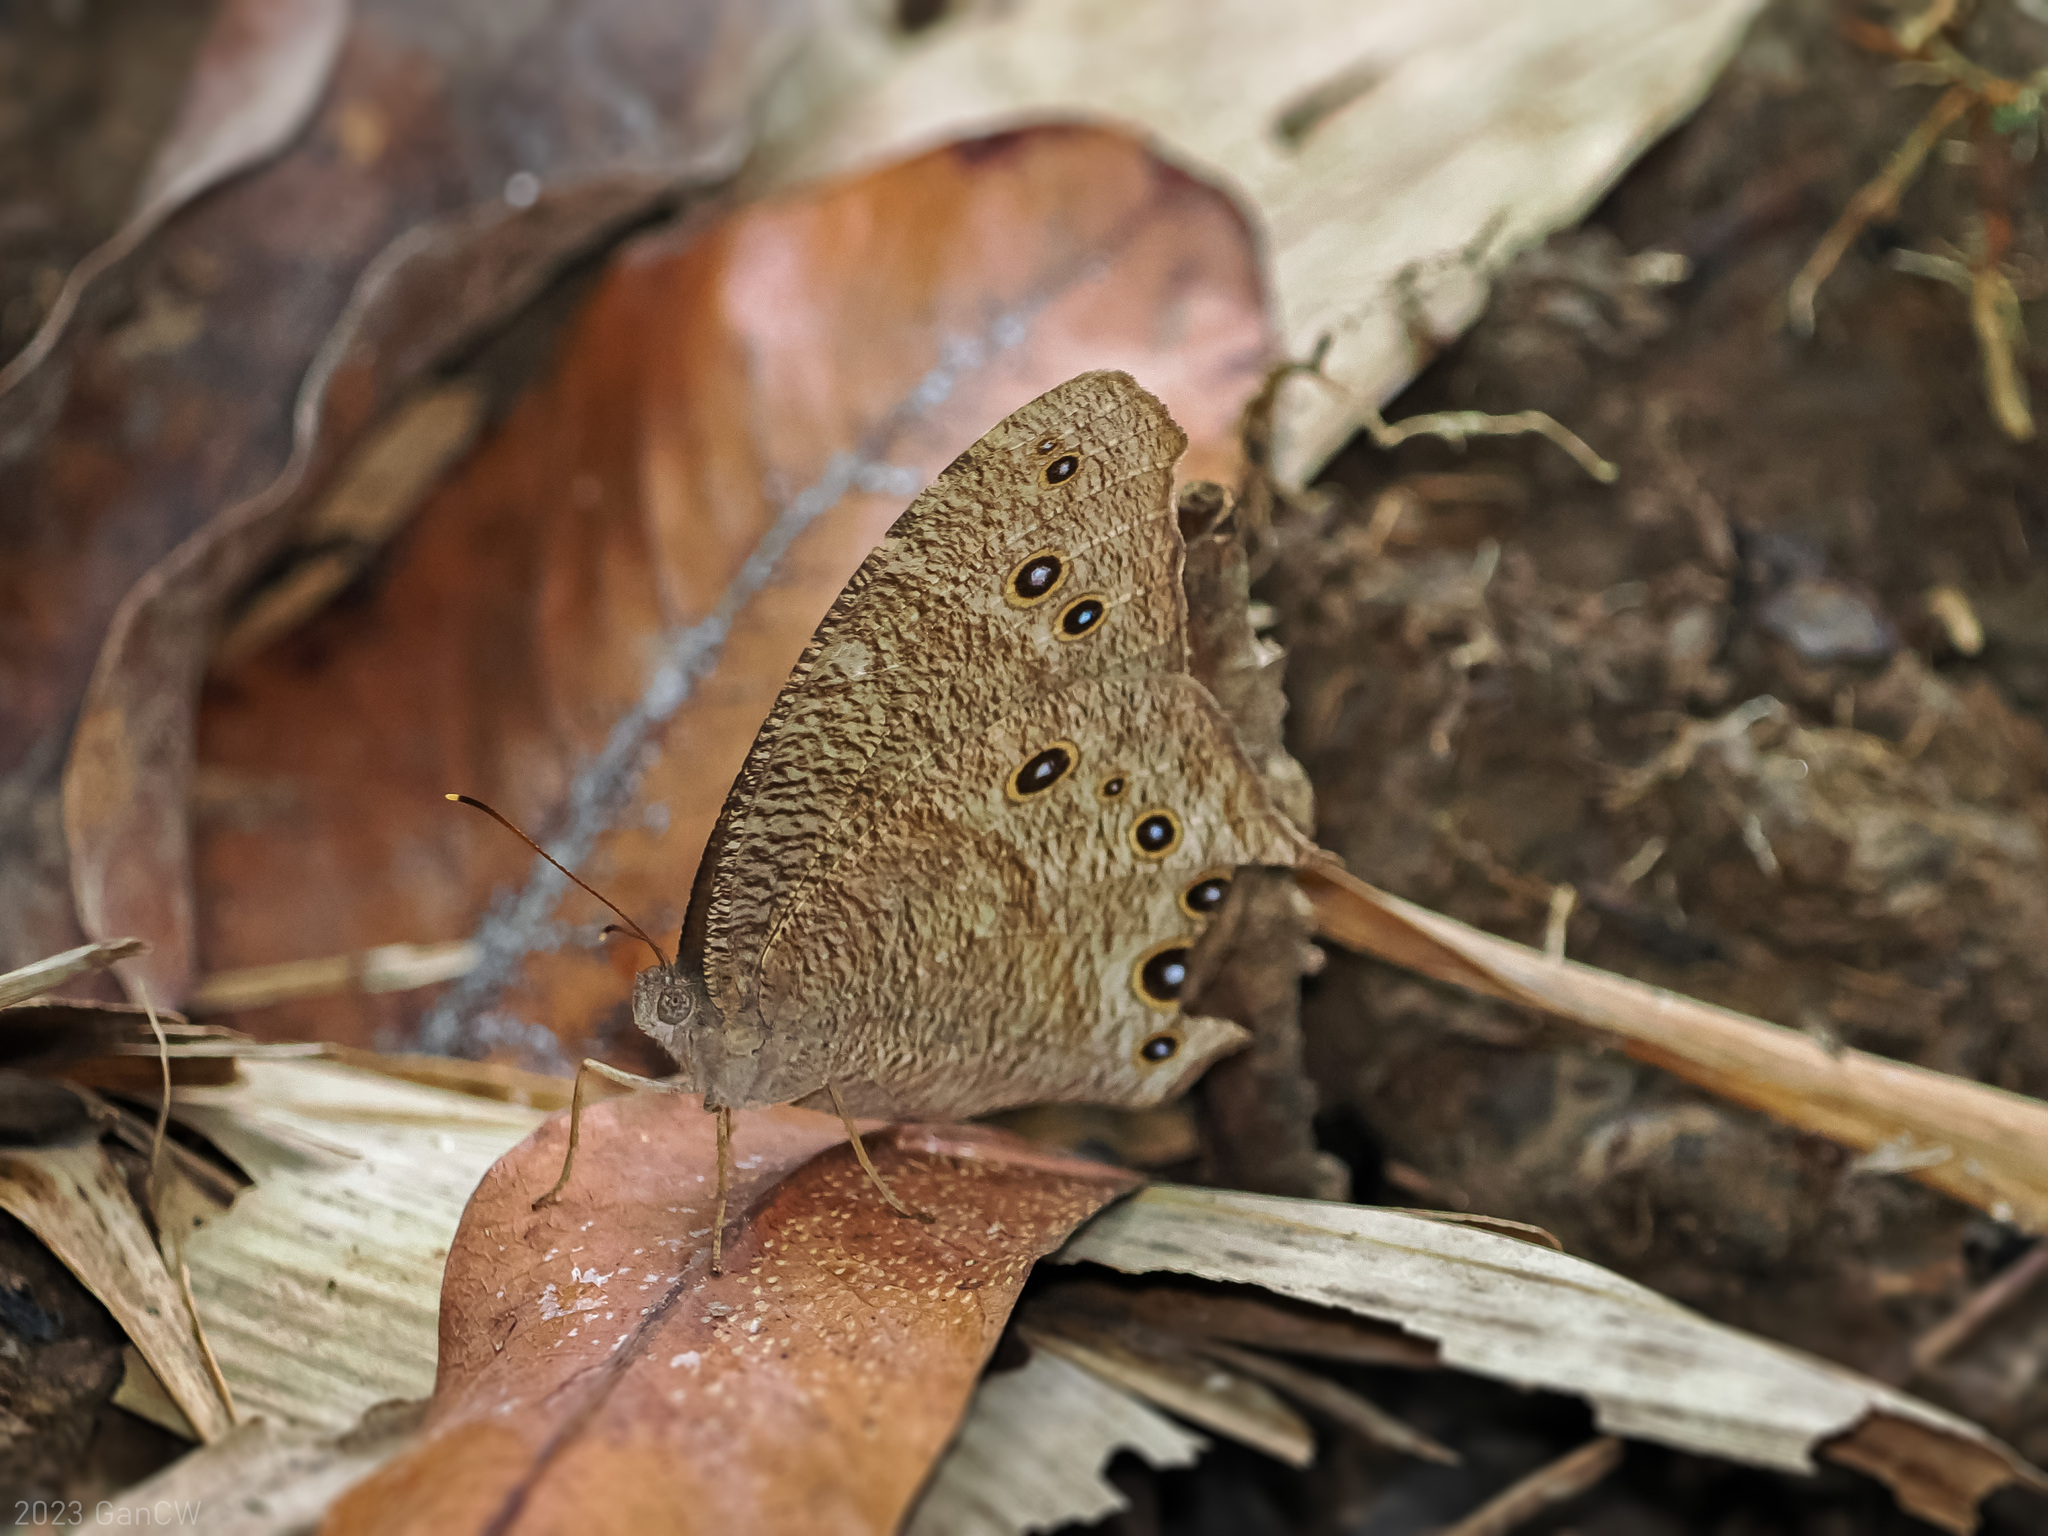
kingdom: Animalia
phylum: Arthropoda
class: Insecta
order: Lepidoptera
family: Nymphalidae
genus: Melanitis
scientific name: Melanitis leda
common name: Twilight brown
